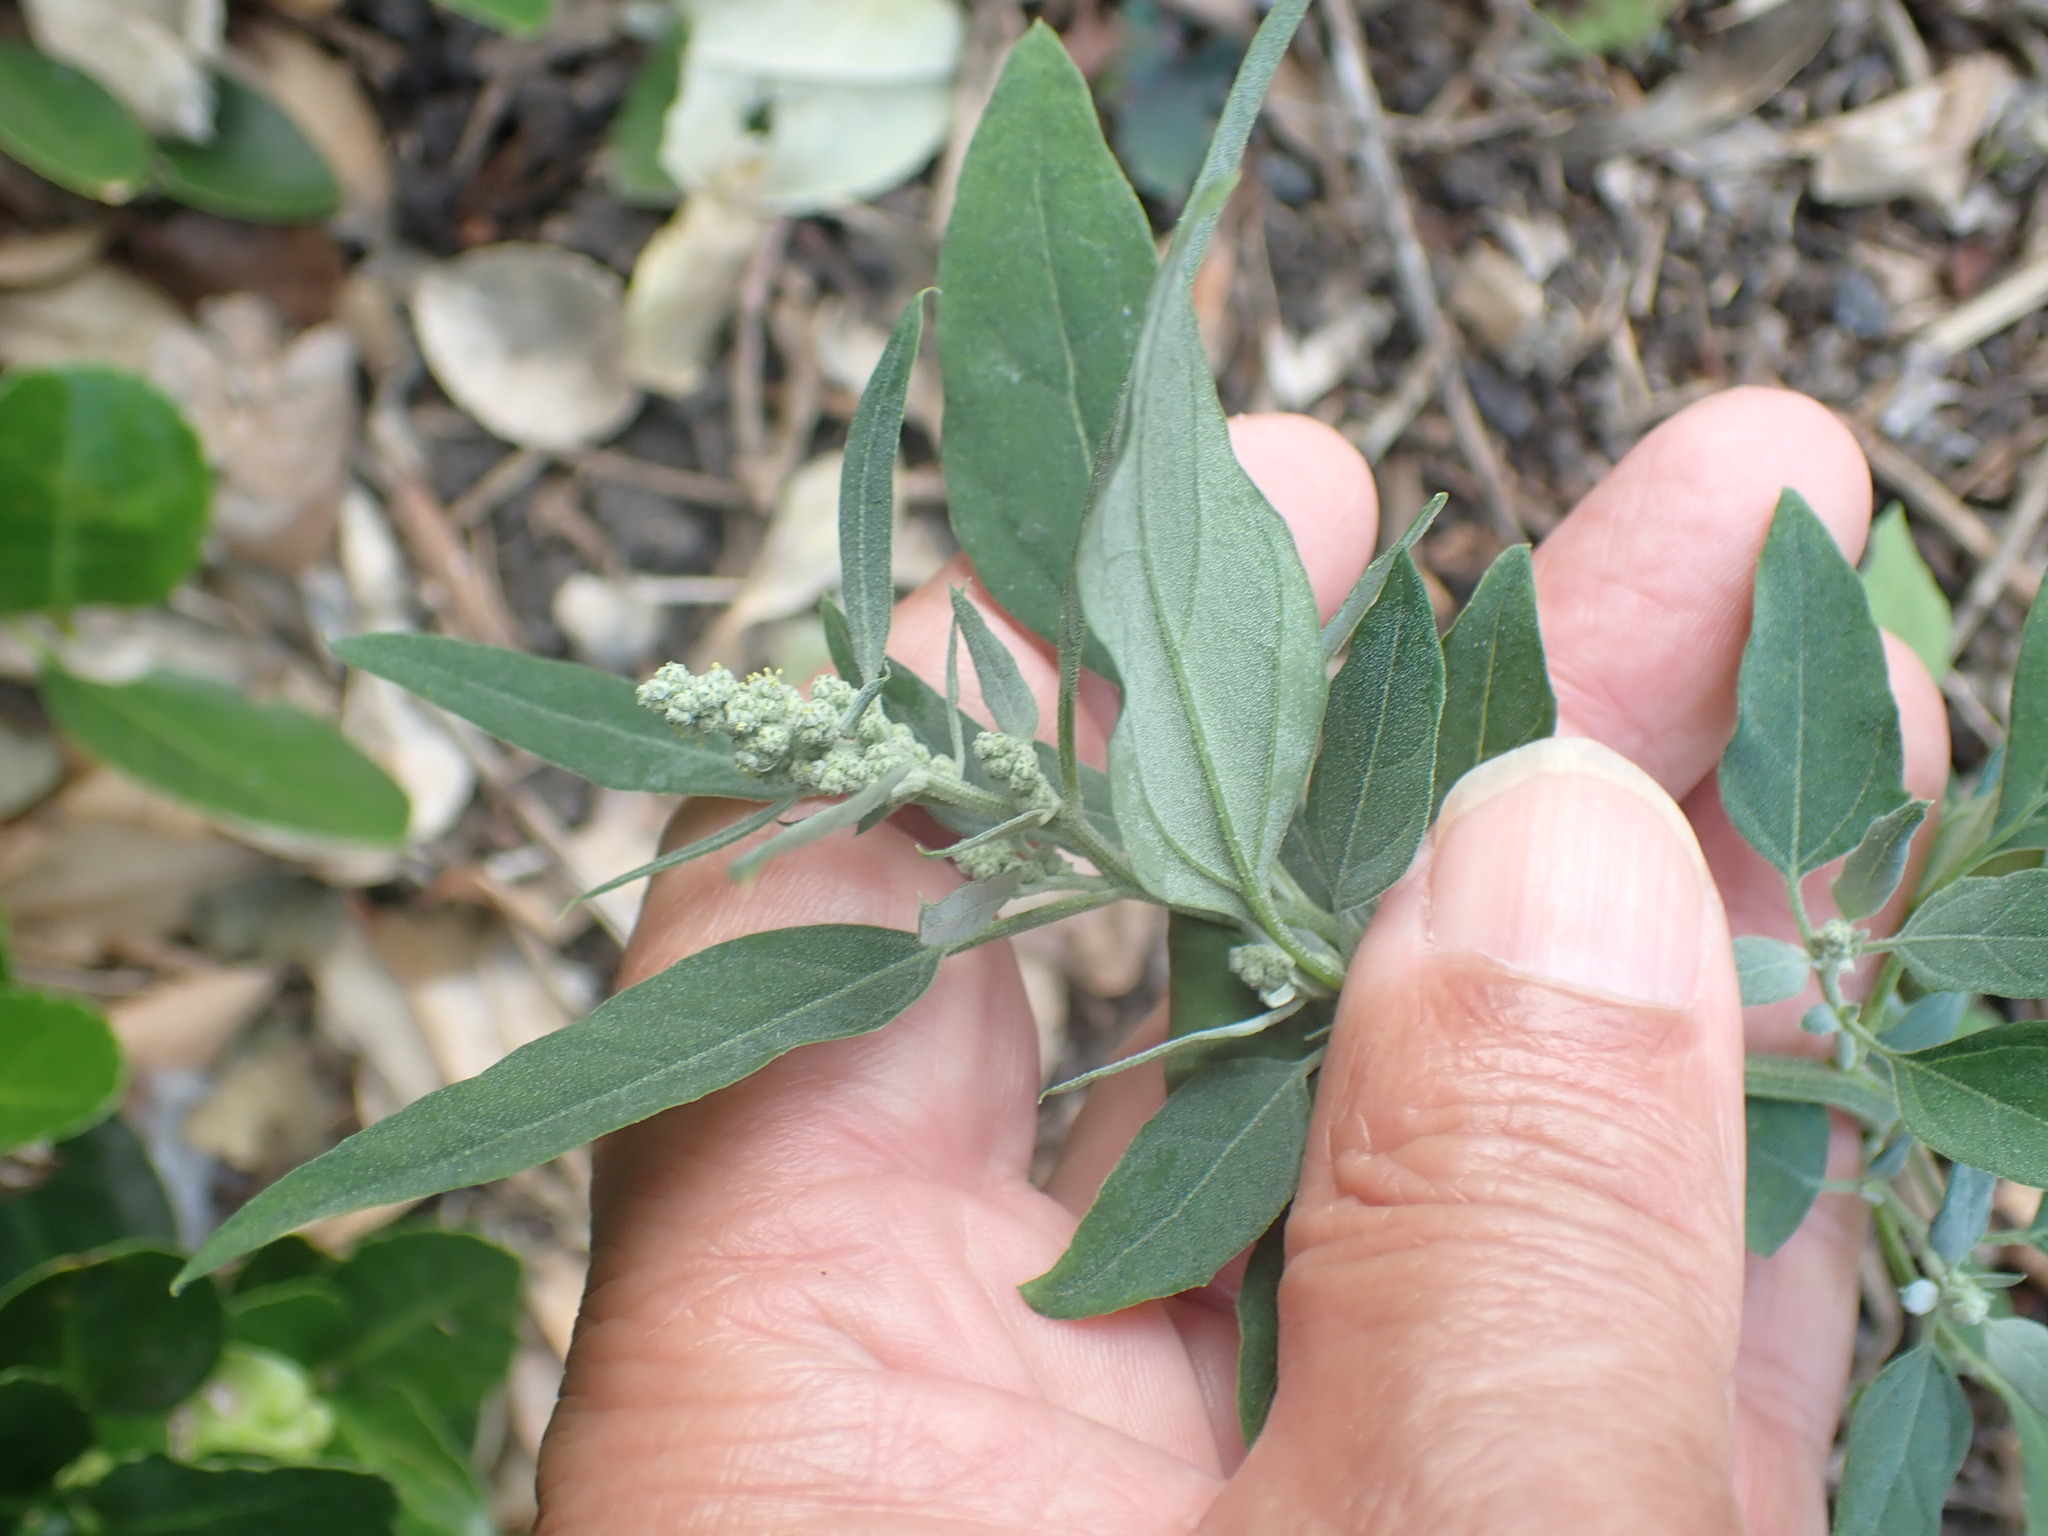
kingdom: Plantae
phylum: Tracheophyta
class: Magnoliopsida
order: Caryophyllales
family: Amaranthaceae
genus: Chenopodium
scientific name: Chenopodium album
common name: Fat-hen
